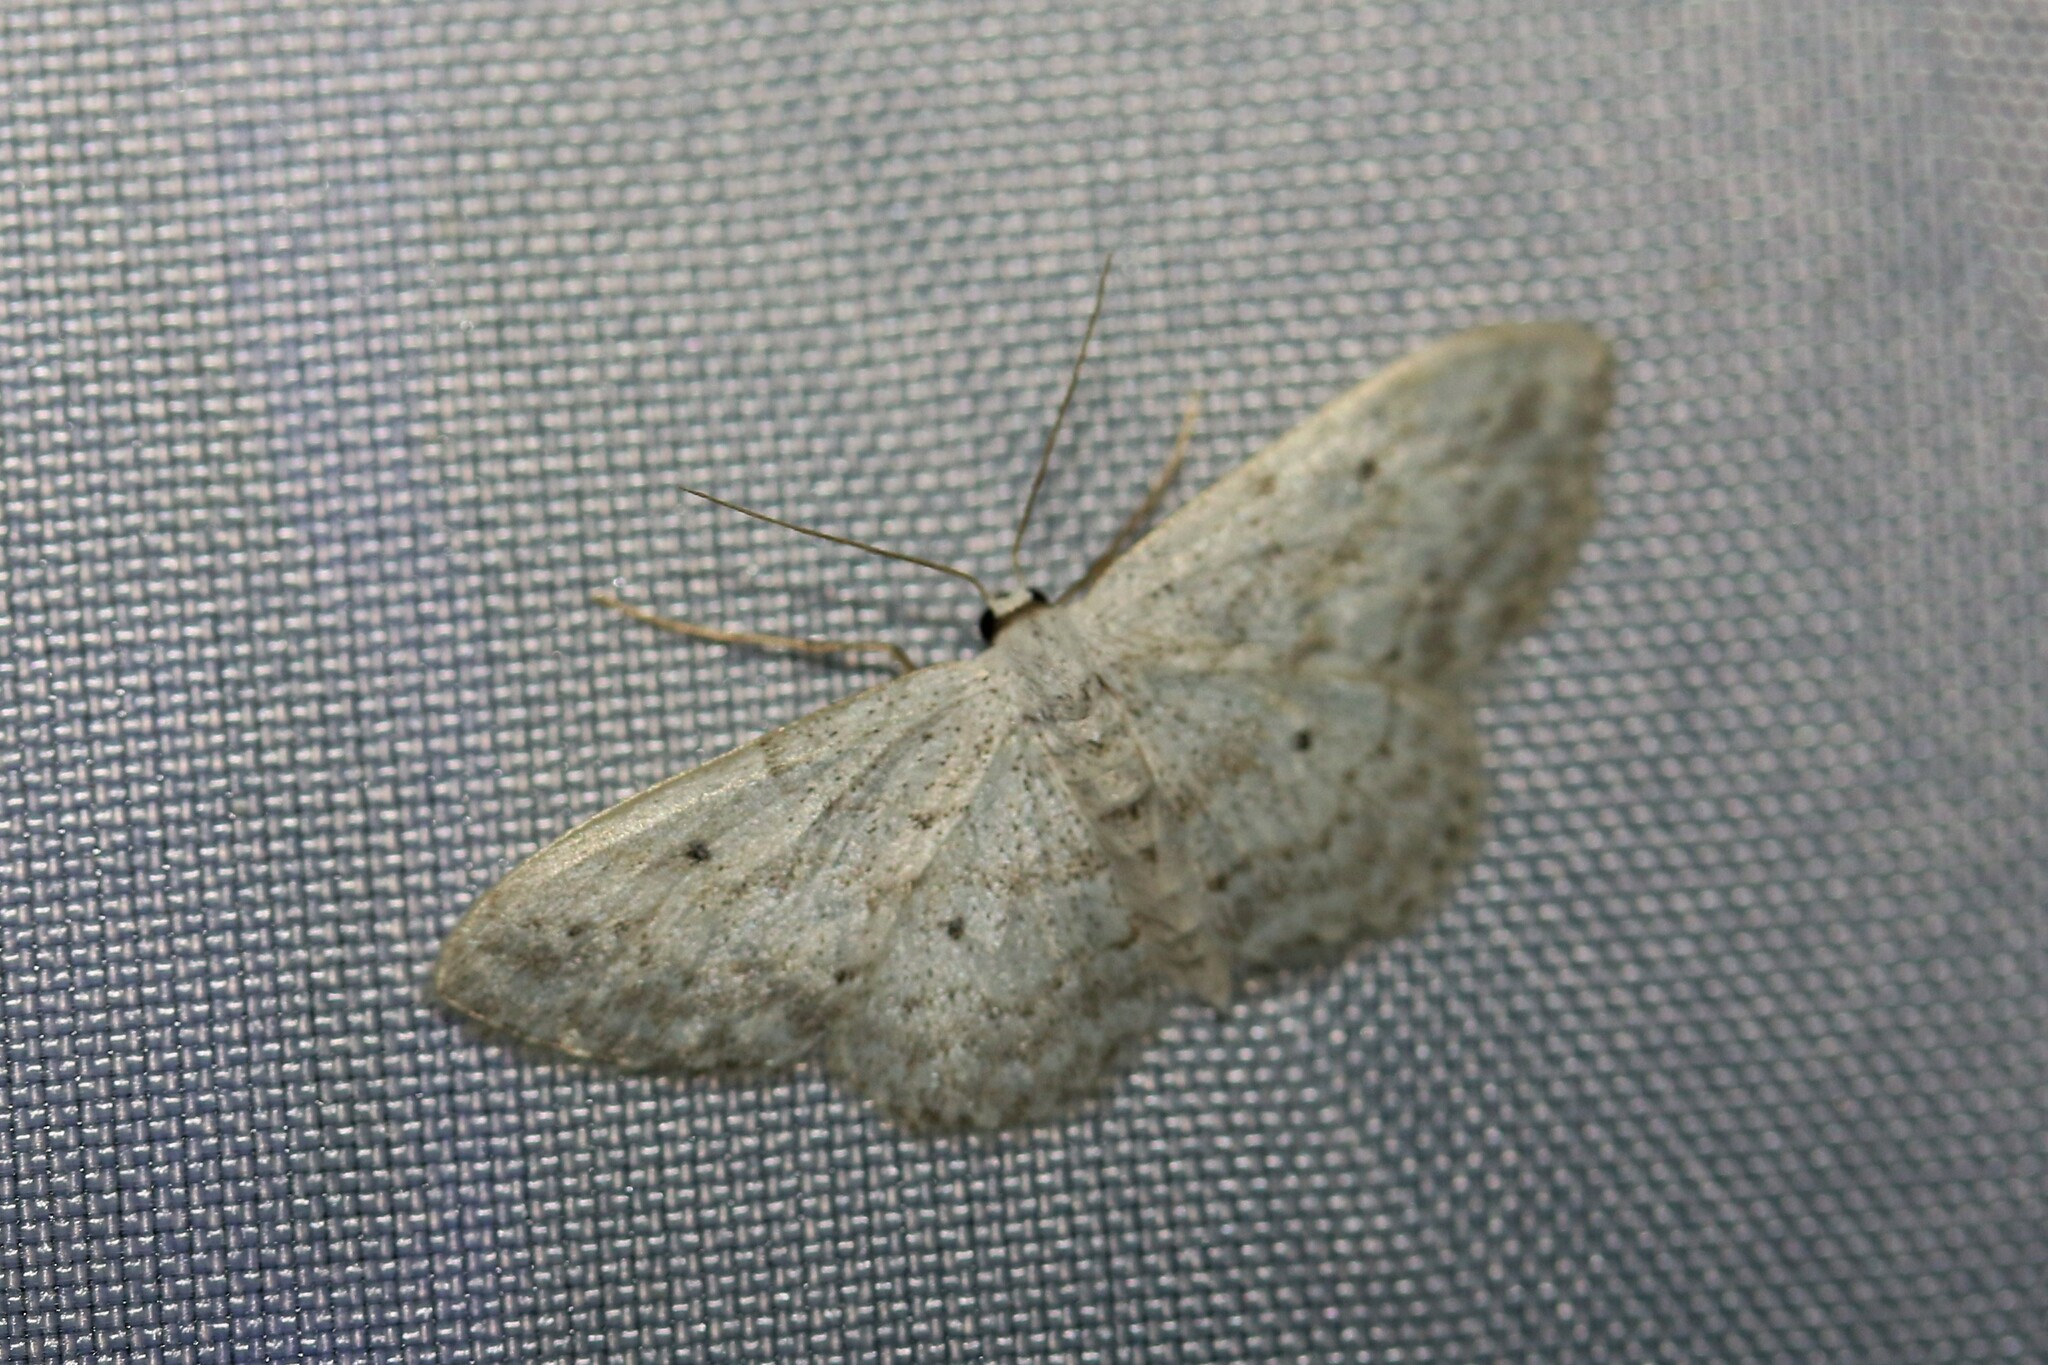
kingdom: Animalia
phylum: Arthropoda
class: Insecta
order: Lepidoptera
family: Geometridae
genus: Idaea
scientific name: Idaea seriata
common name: Small dusty wave
